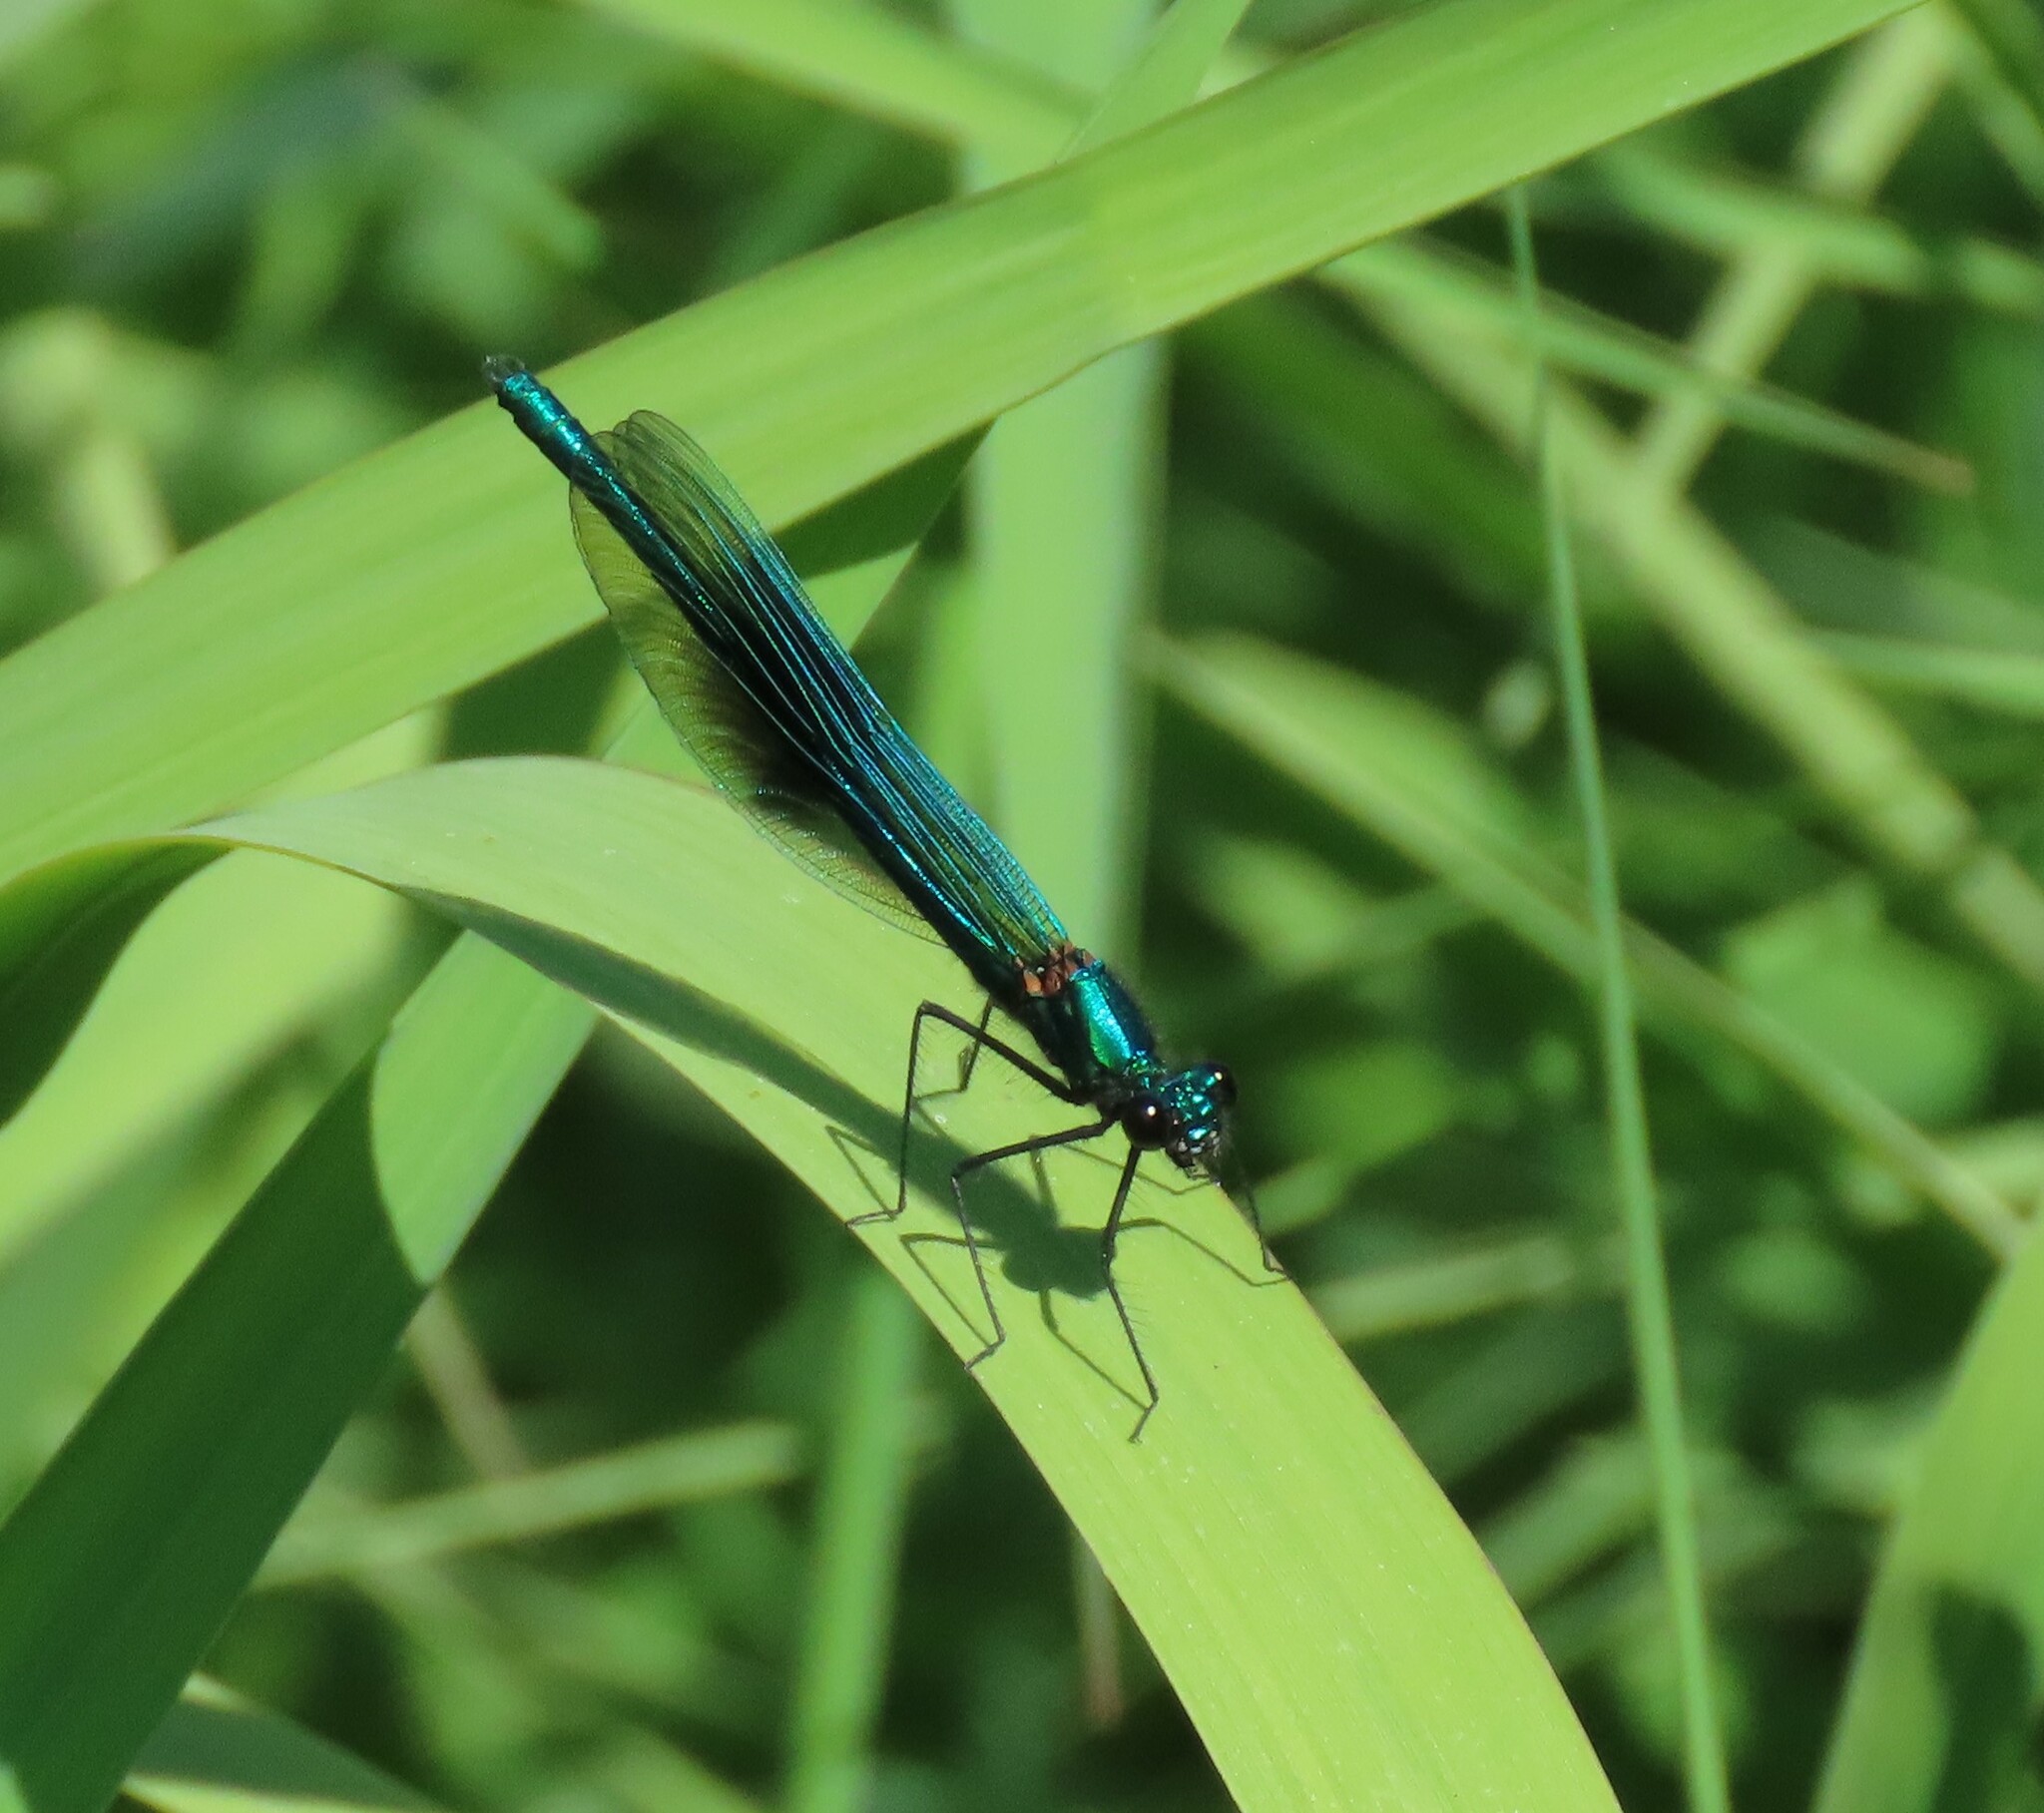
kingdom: Animalia
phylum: Arthropoda
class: Insecta
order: Odonata
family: Calopterygidae
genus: Calopteryx
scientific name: Calopteryx splendens
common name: Banded demoiselle
